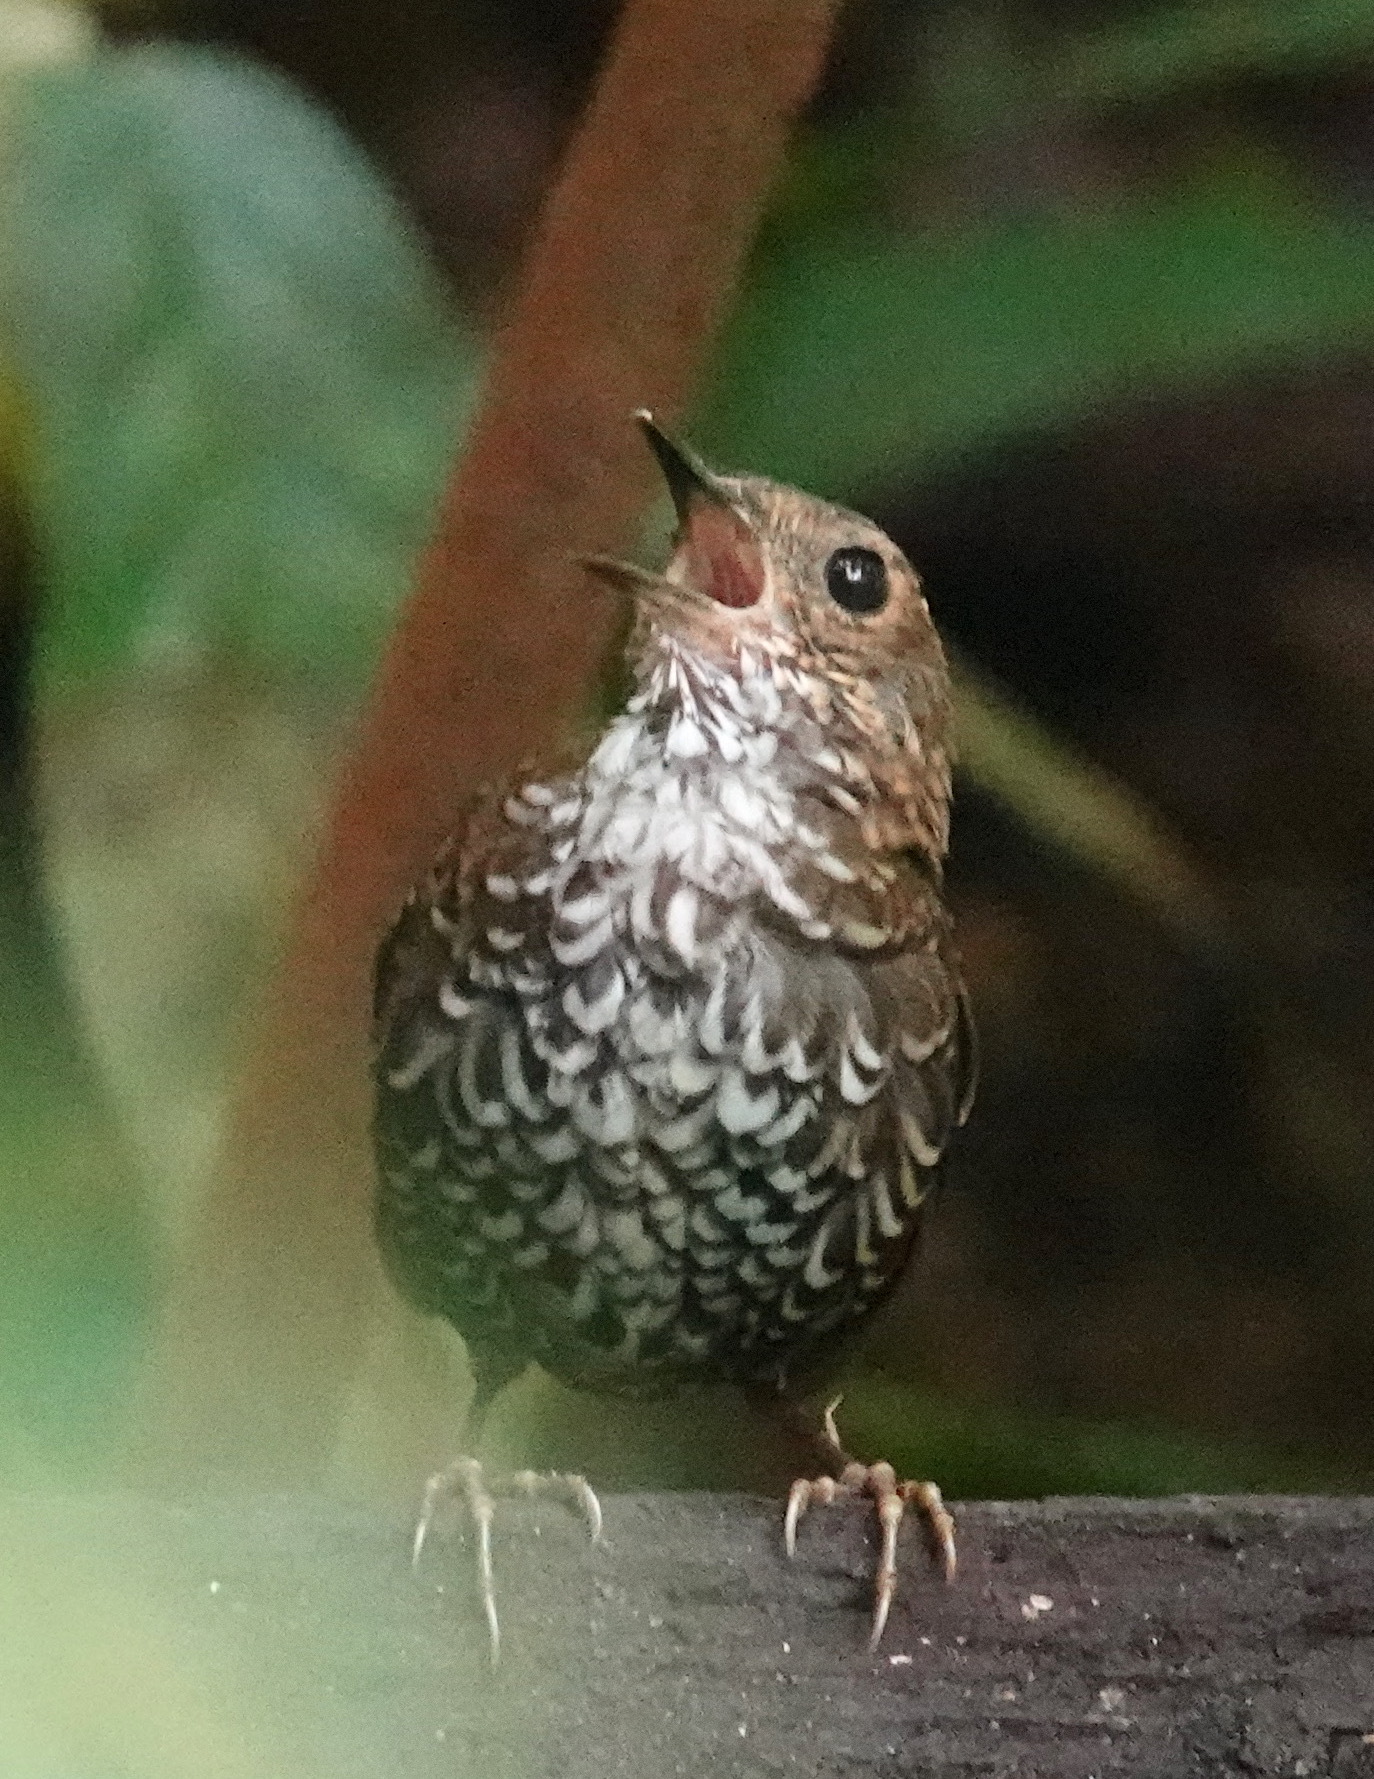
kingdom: Animalia
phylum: Chordata
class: Aves
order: Passeriformes
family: Pnoepygidae
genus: Pnoepyga
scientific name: Pnoepyga pusilla
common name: Pygmy wren-babbler
